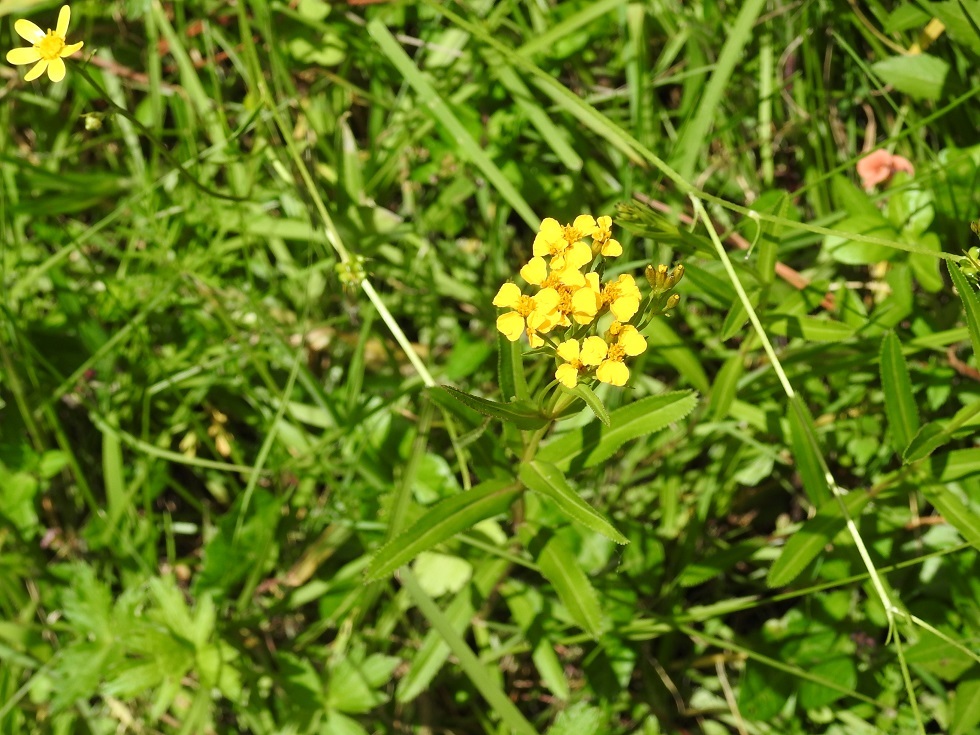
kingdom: Plantae
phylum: Tracheophyta
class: Magnoliopsida
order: Asterales
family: Asteraceae
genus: Tagetes
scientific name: Tagetes lucida
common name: Sweetscented marigold
